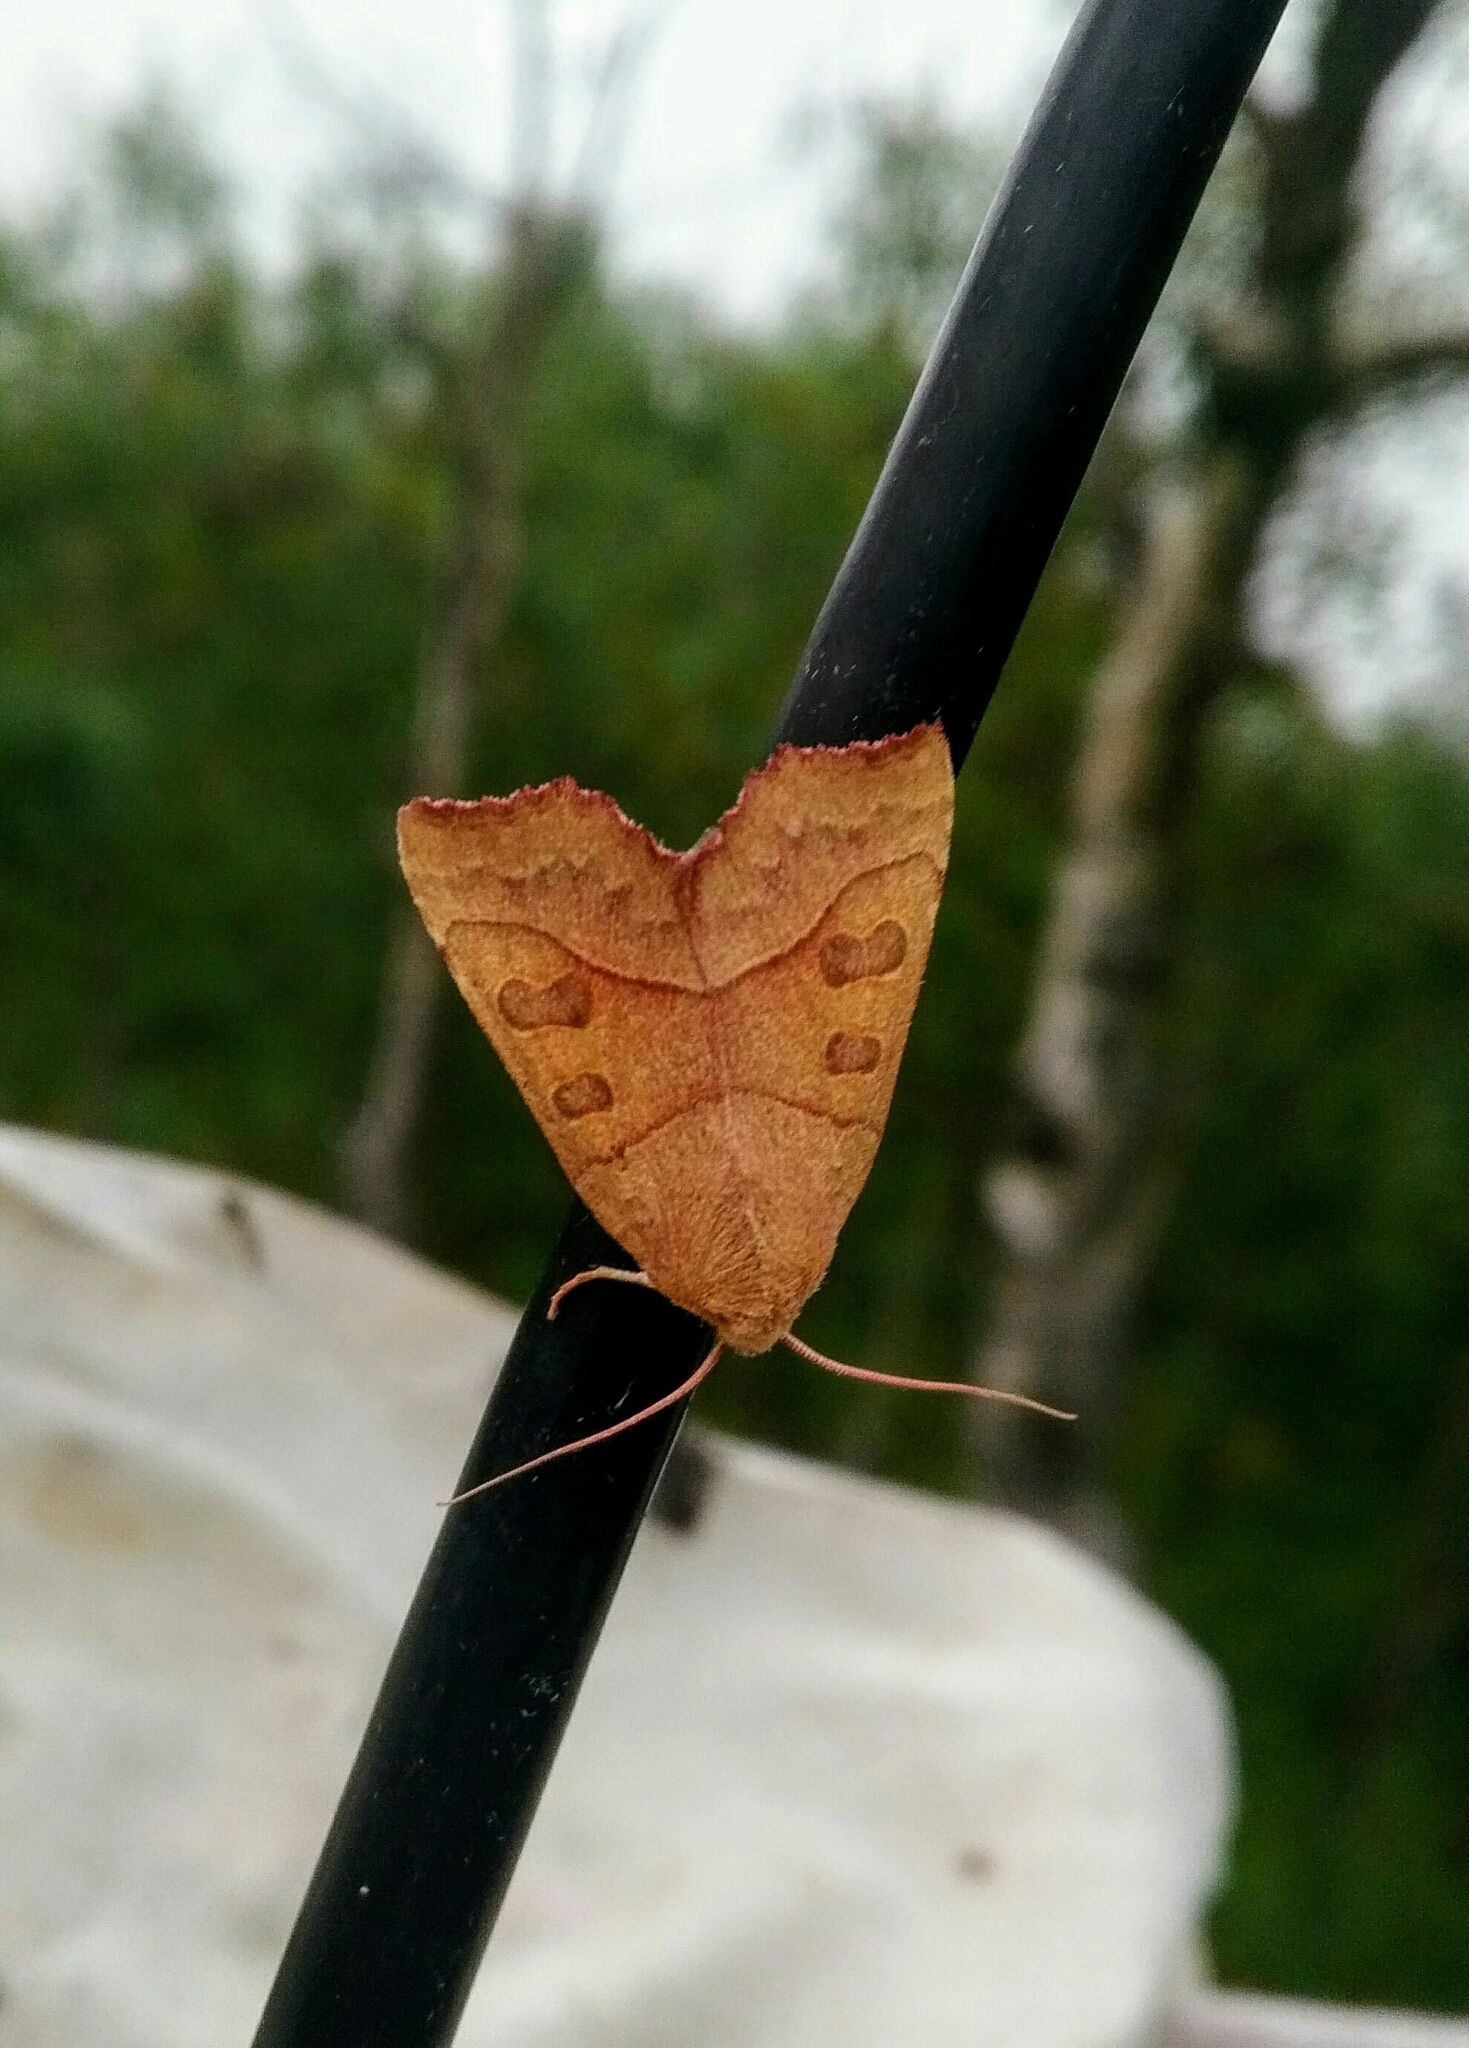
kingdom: Animalia
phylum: Arthropoda
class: Insecta
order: Lepidoptera
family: Noctuidae
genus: Eucirroedia
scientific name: Eucirroedia pampina
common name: Scalloped sallow
